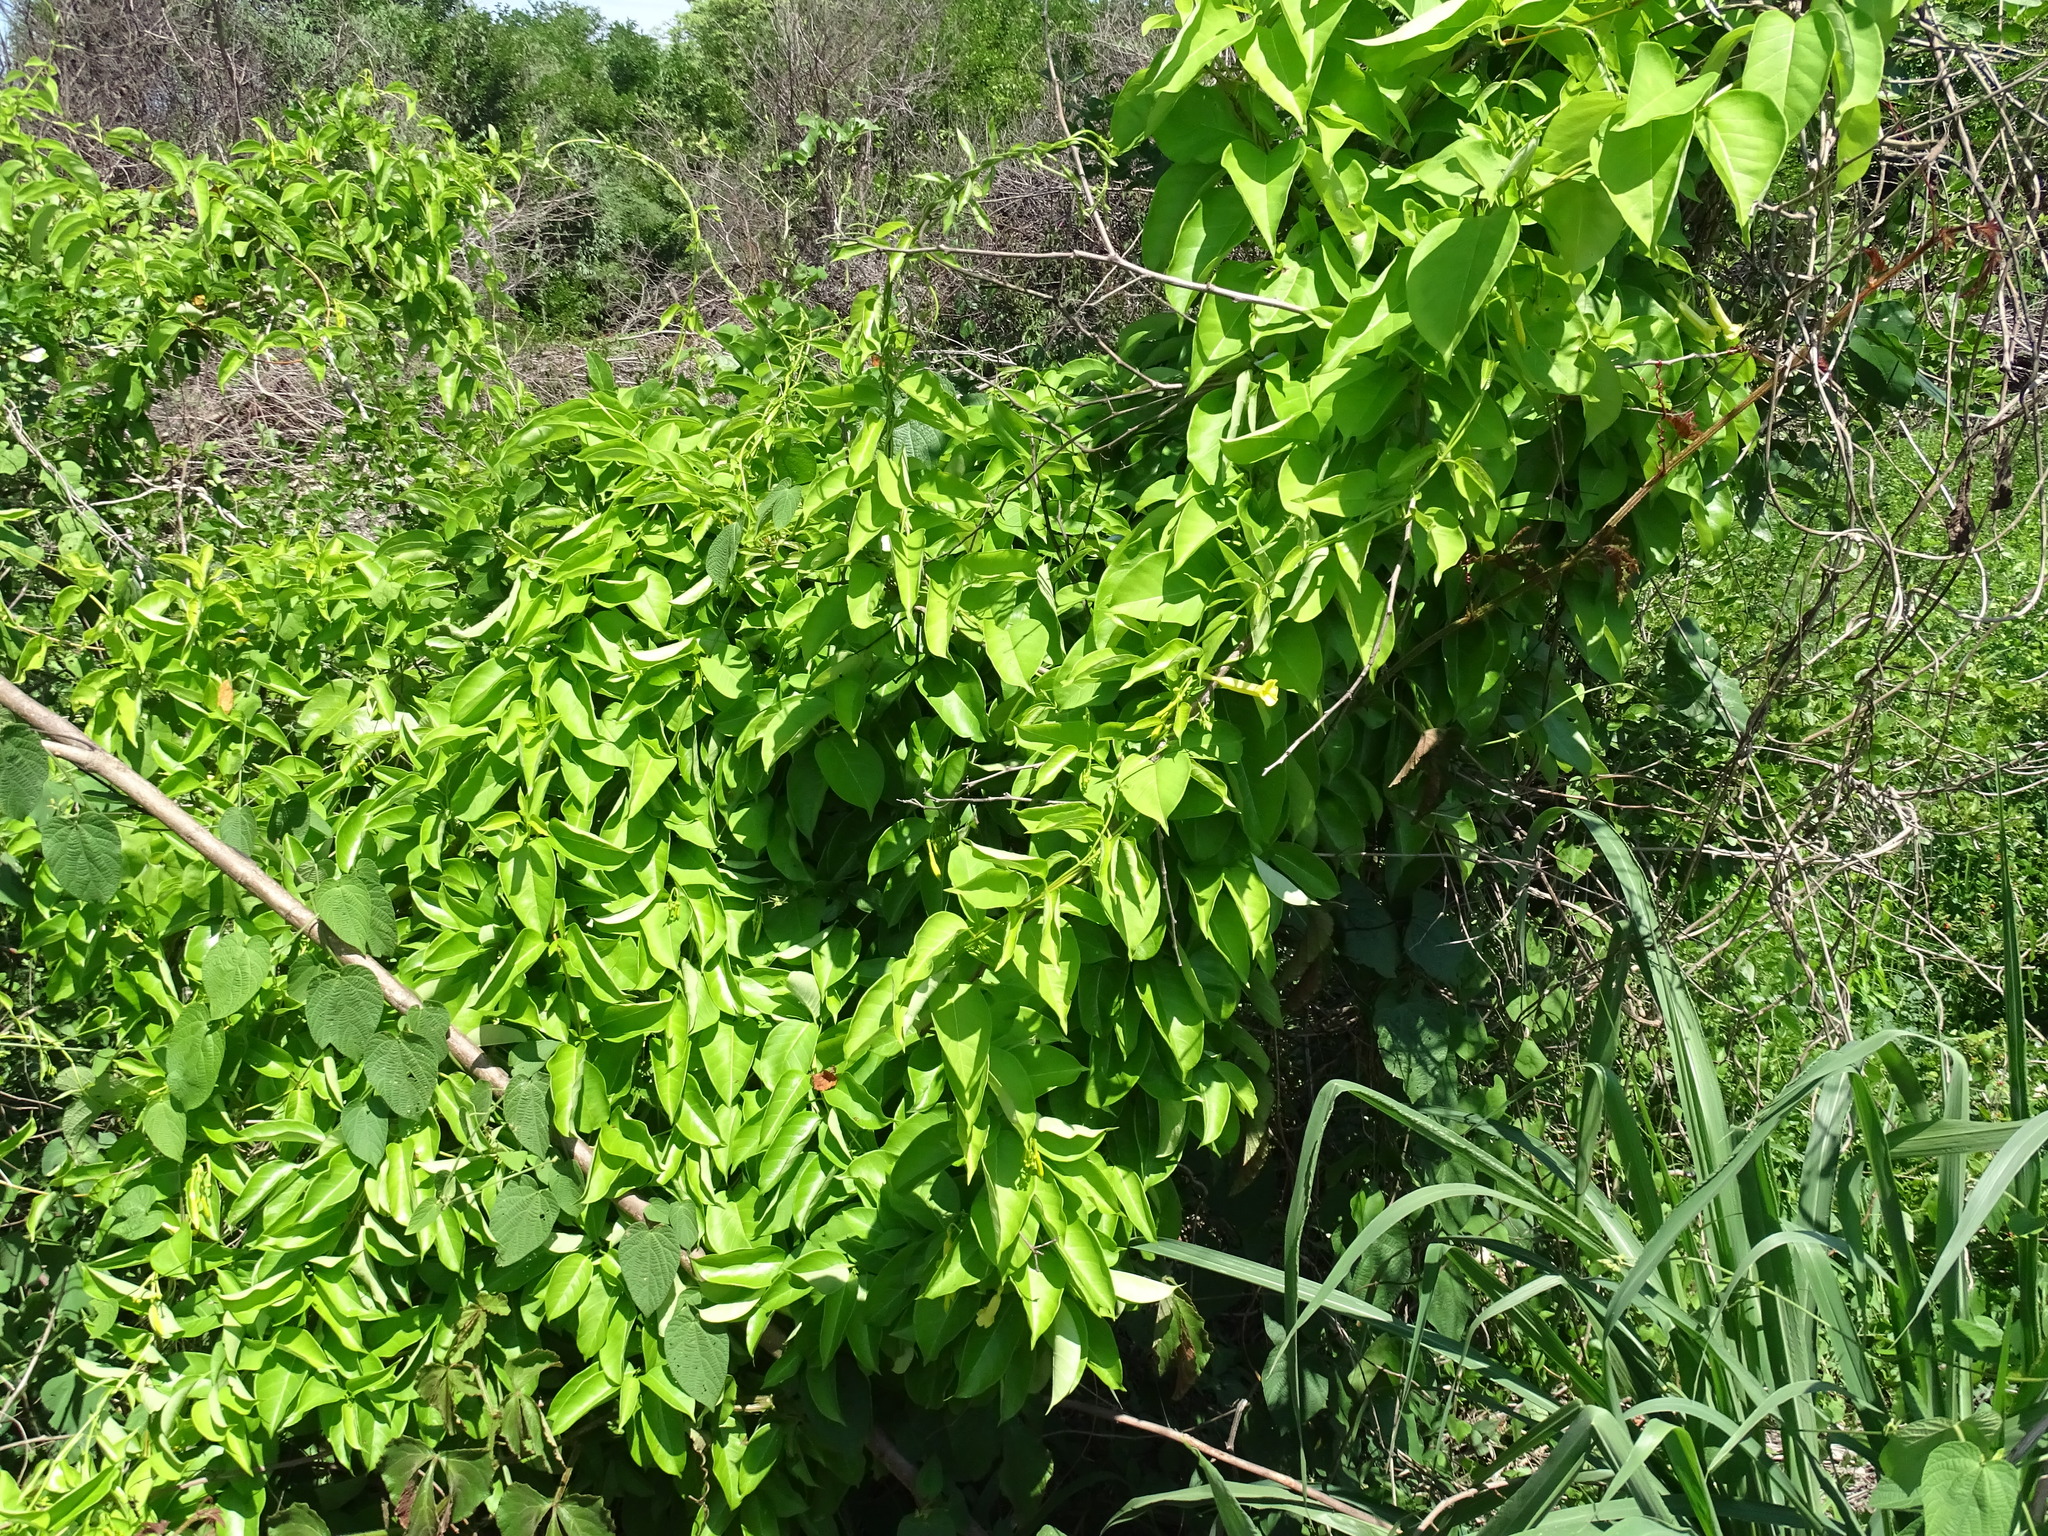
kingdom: Plantae
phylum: Tracheophyta
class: Magnoliopsida
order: Gentianales
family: Apocynaceae
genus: Pentalinon
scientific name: Pentalinon andrieuxii
